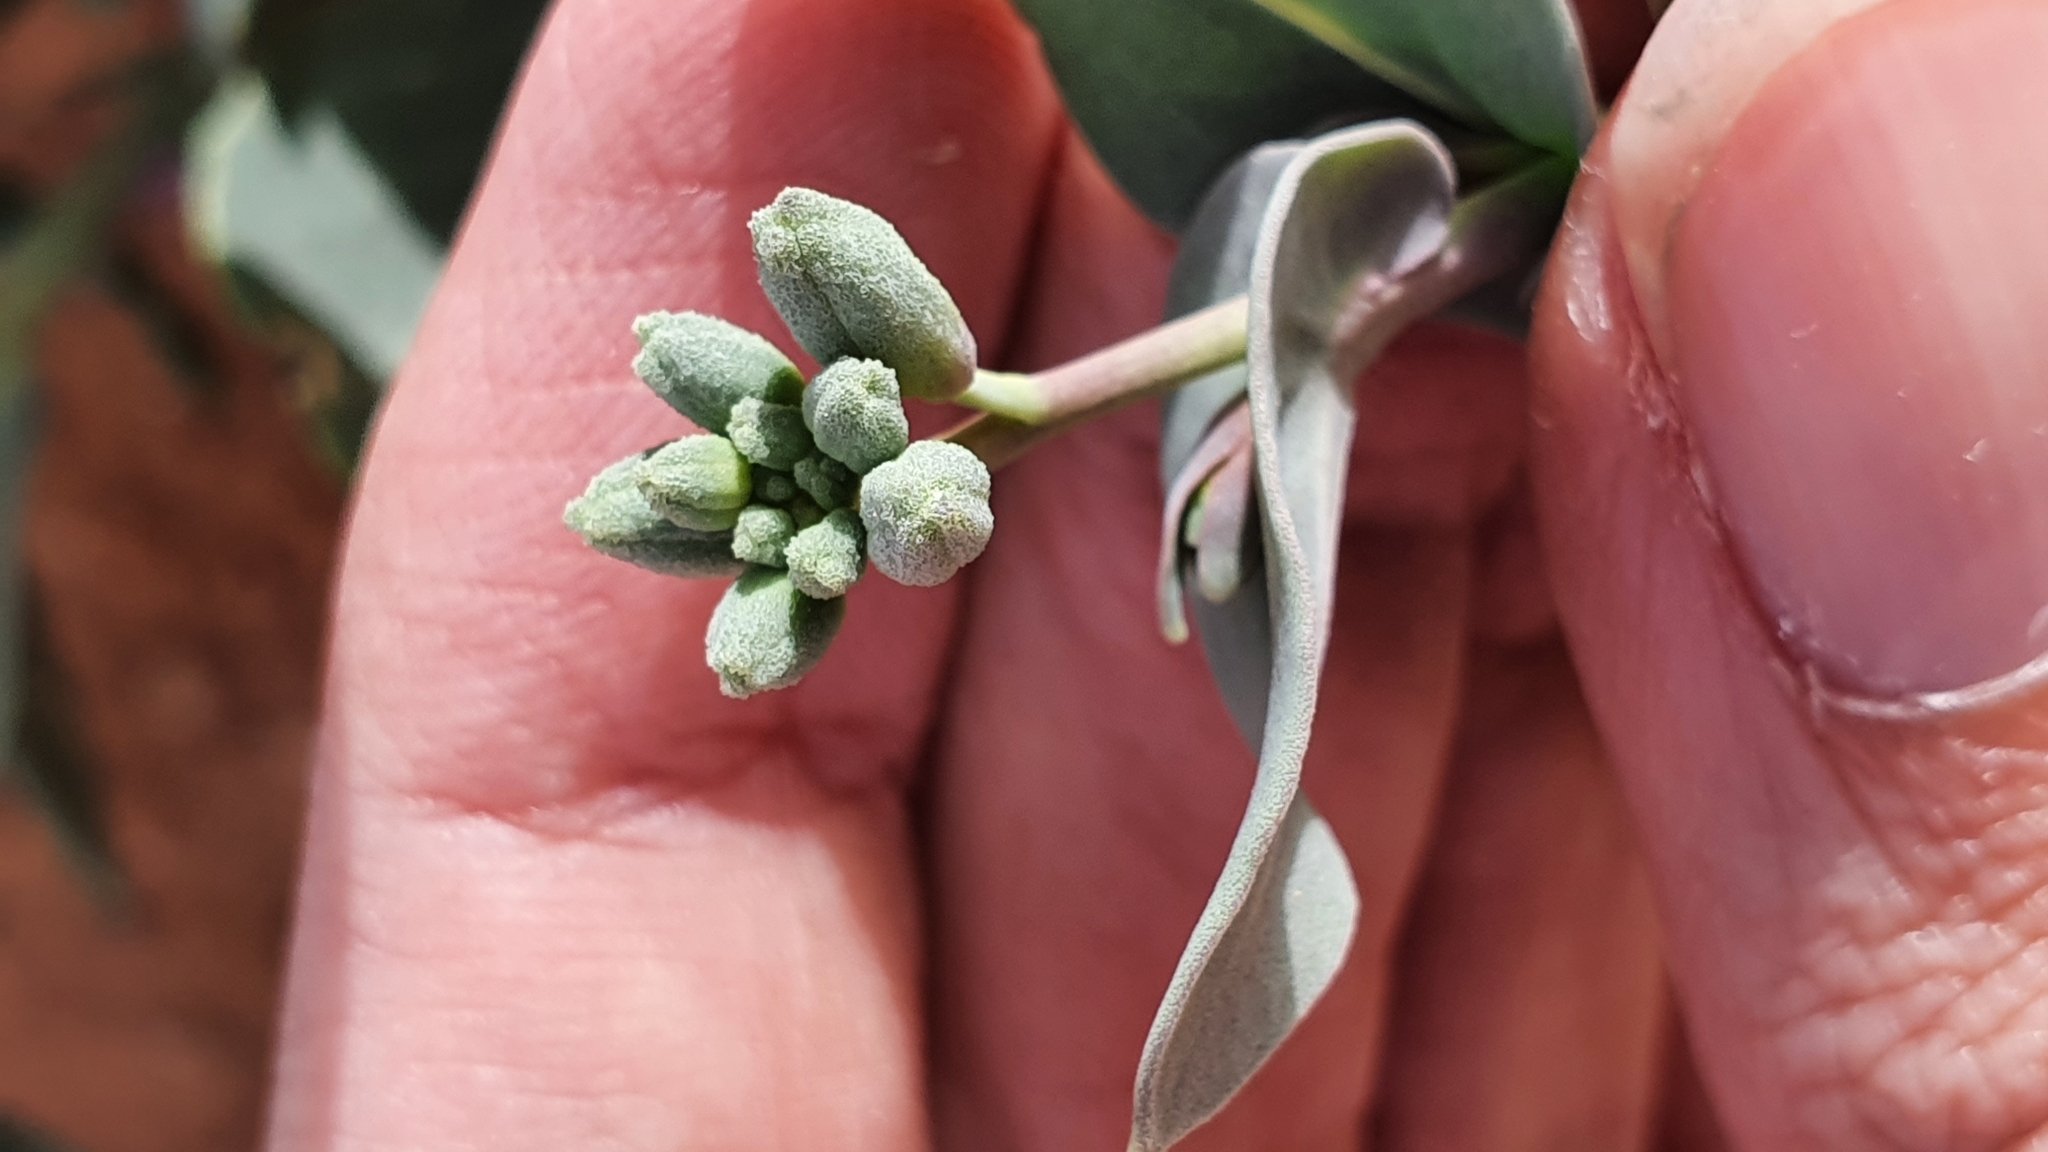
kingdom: Plantae
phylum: Tracheophyta
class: Magnoliopsida
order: Brassicales
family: Brassicaceae
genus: Moricandia
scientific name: Moricandia suffruticosa
